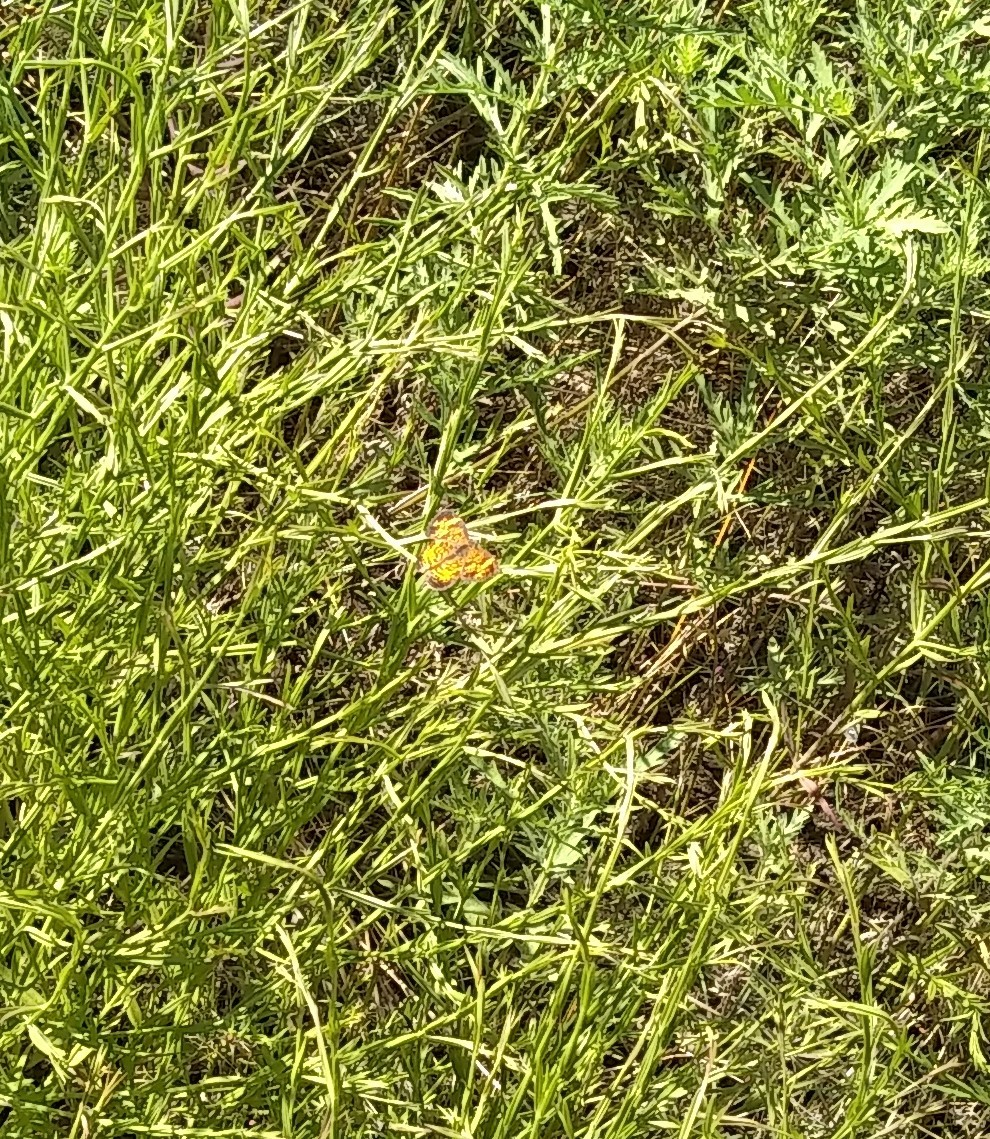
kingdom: Animalia
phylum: Arthropoda
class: Insecta
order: Lepidoptera
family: Nymphalidae
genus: Phyciodes
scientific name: Phyciodes tharos
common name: Pearl crescent
